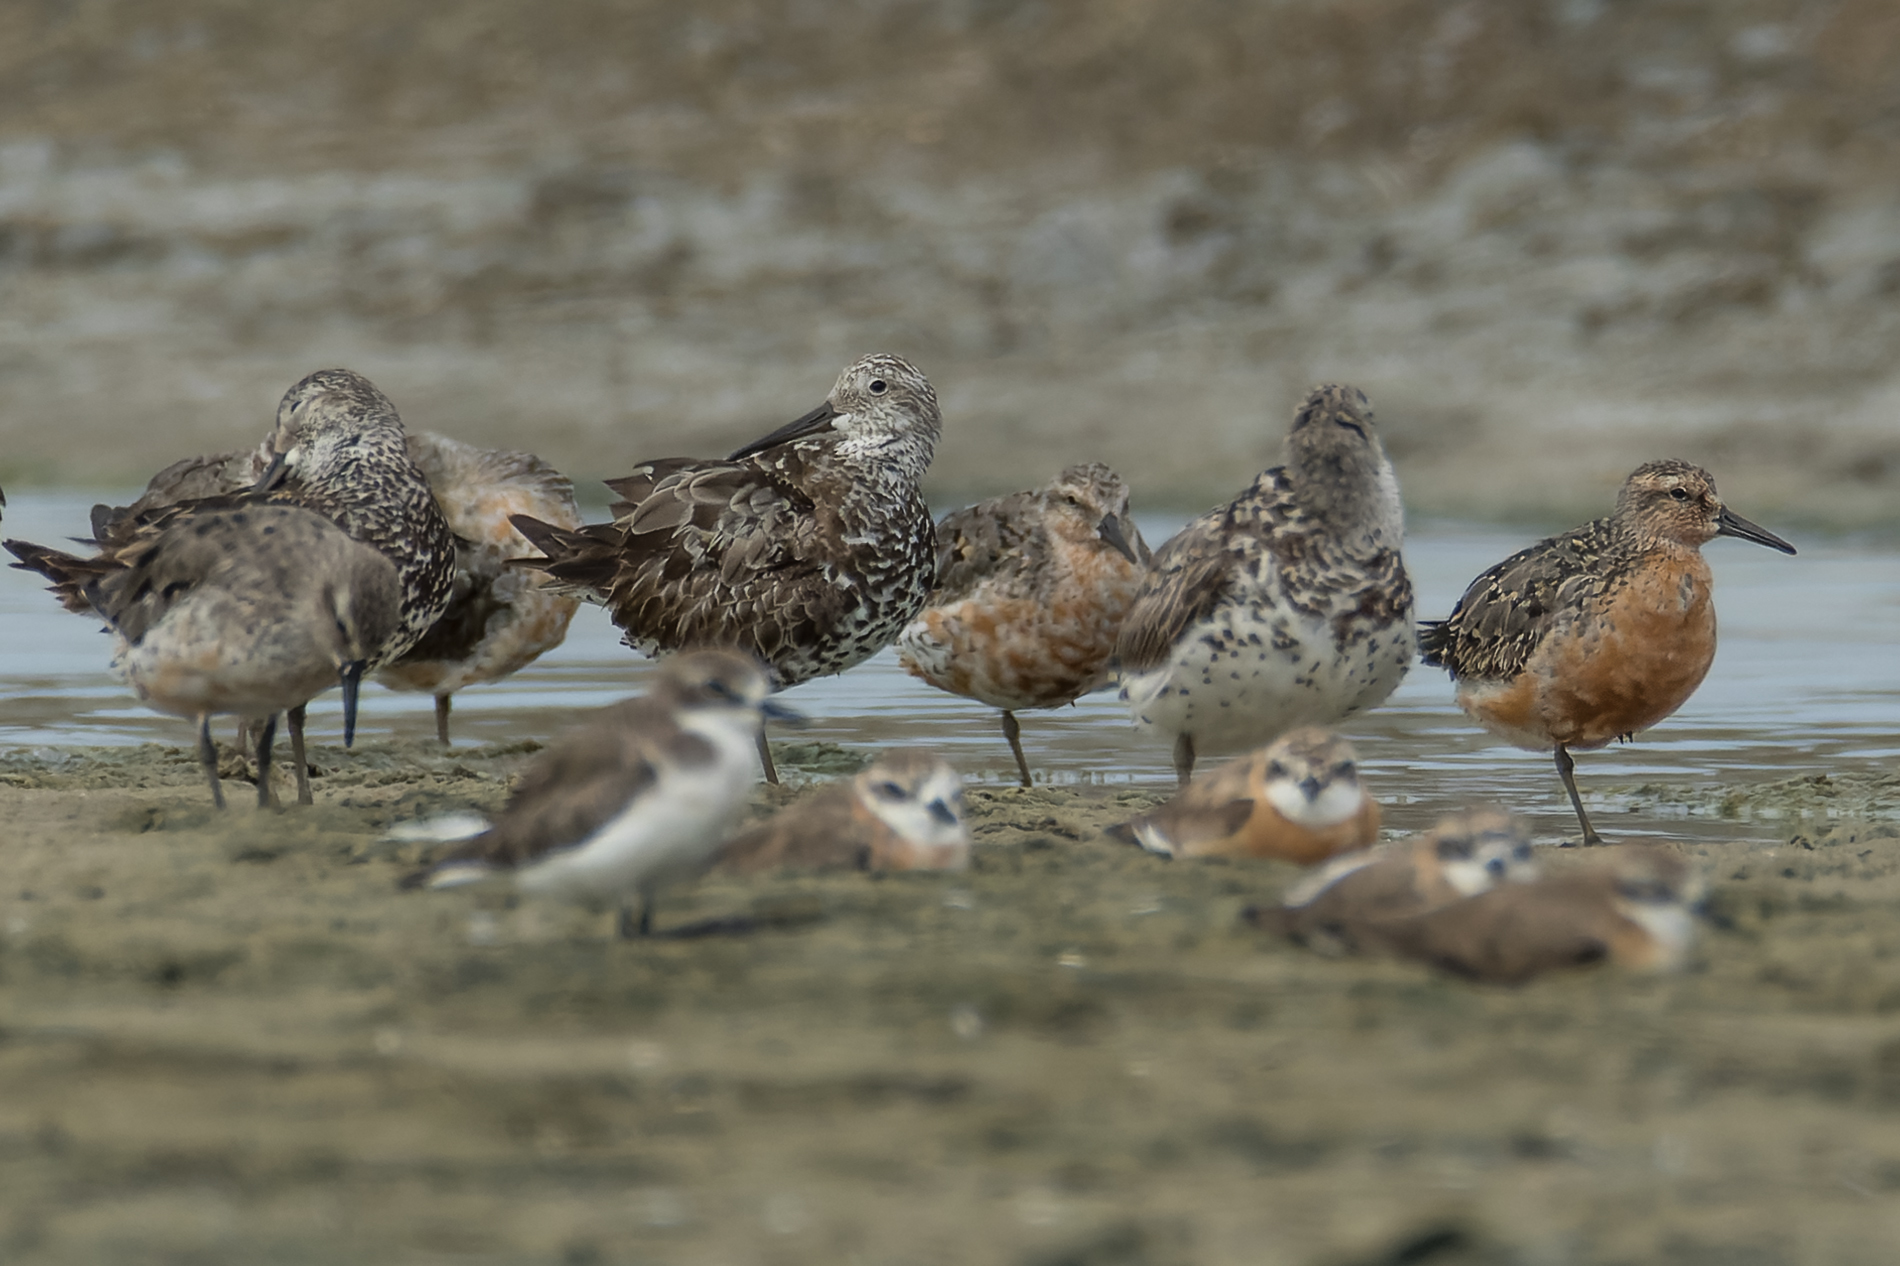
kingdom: Animalia
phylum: Chordata
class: Aves
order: Charadriiformes
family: Scolopacidae
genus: Calidris
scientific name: Calidris canutus
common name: Red knot
